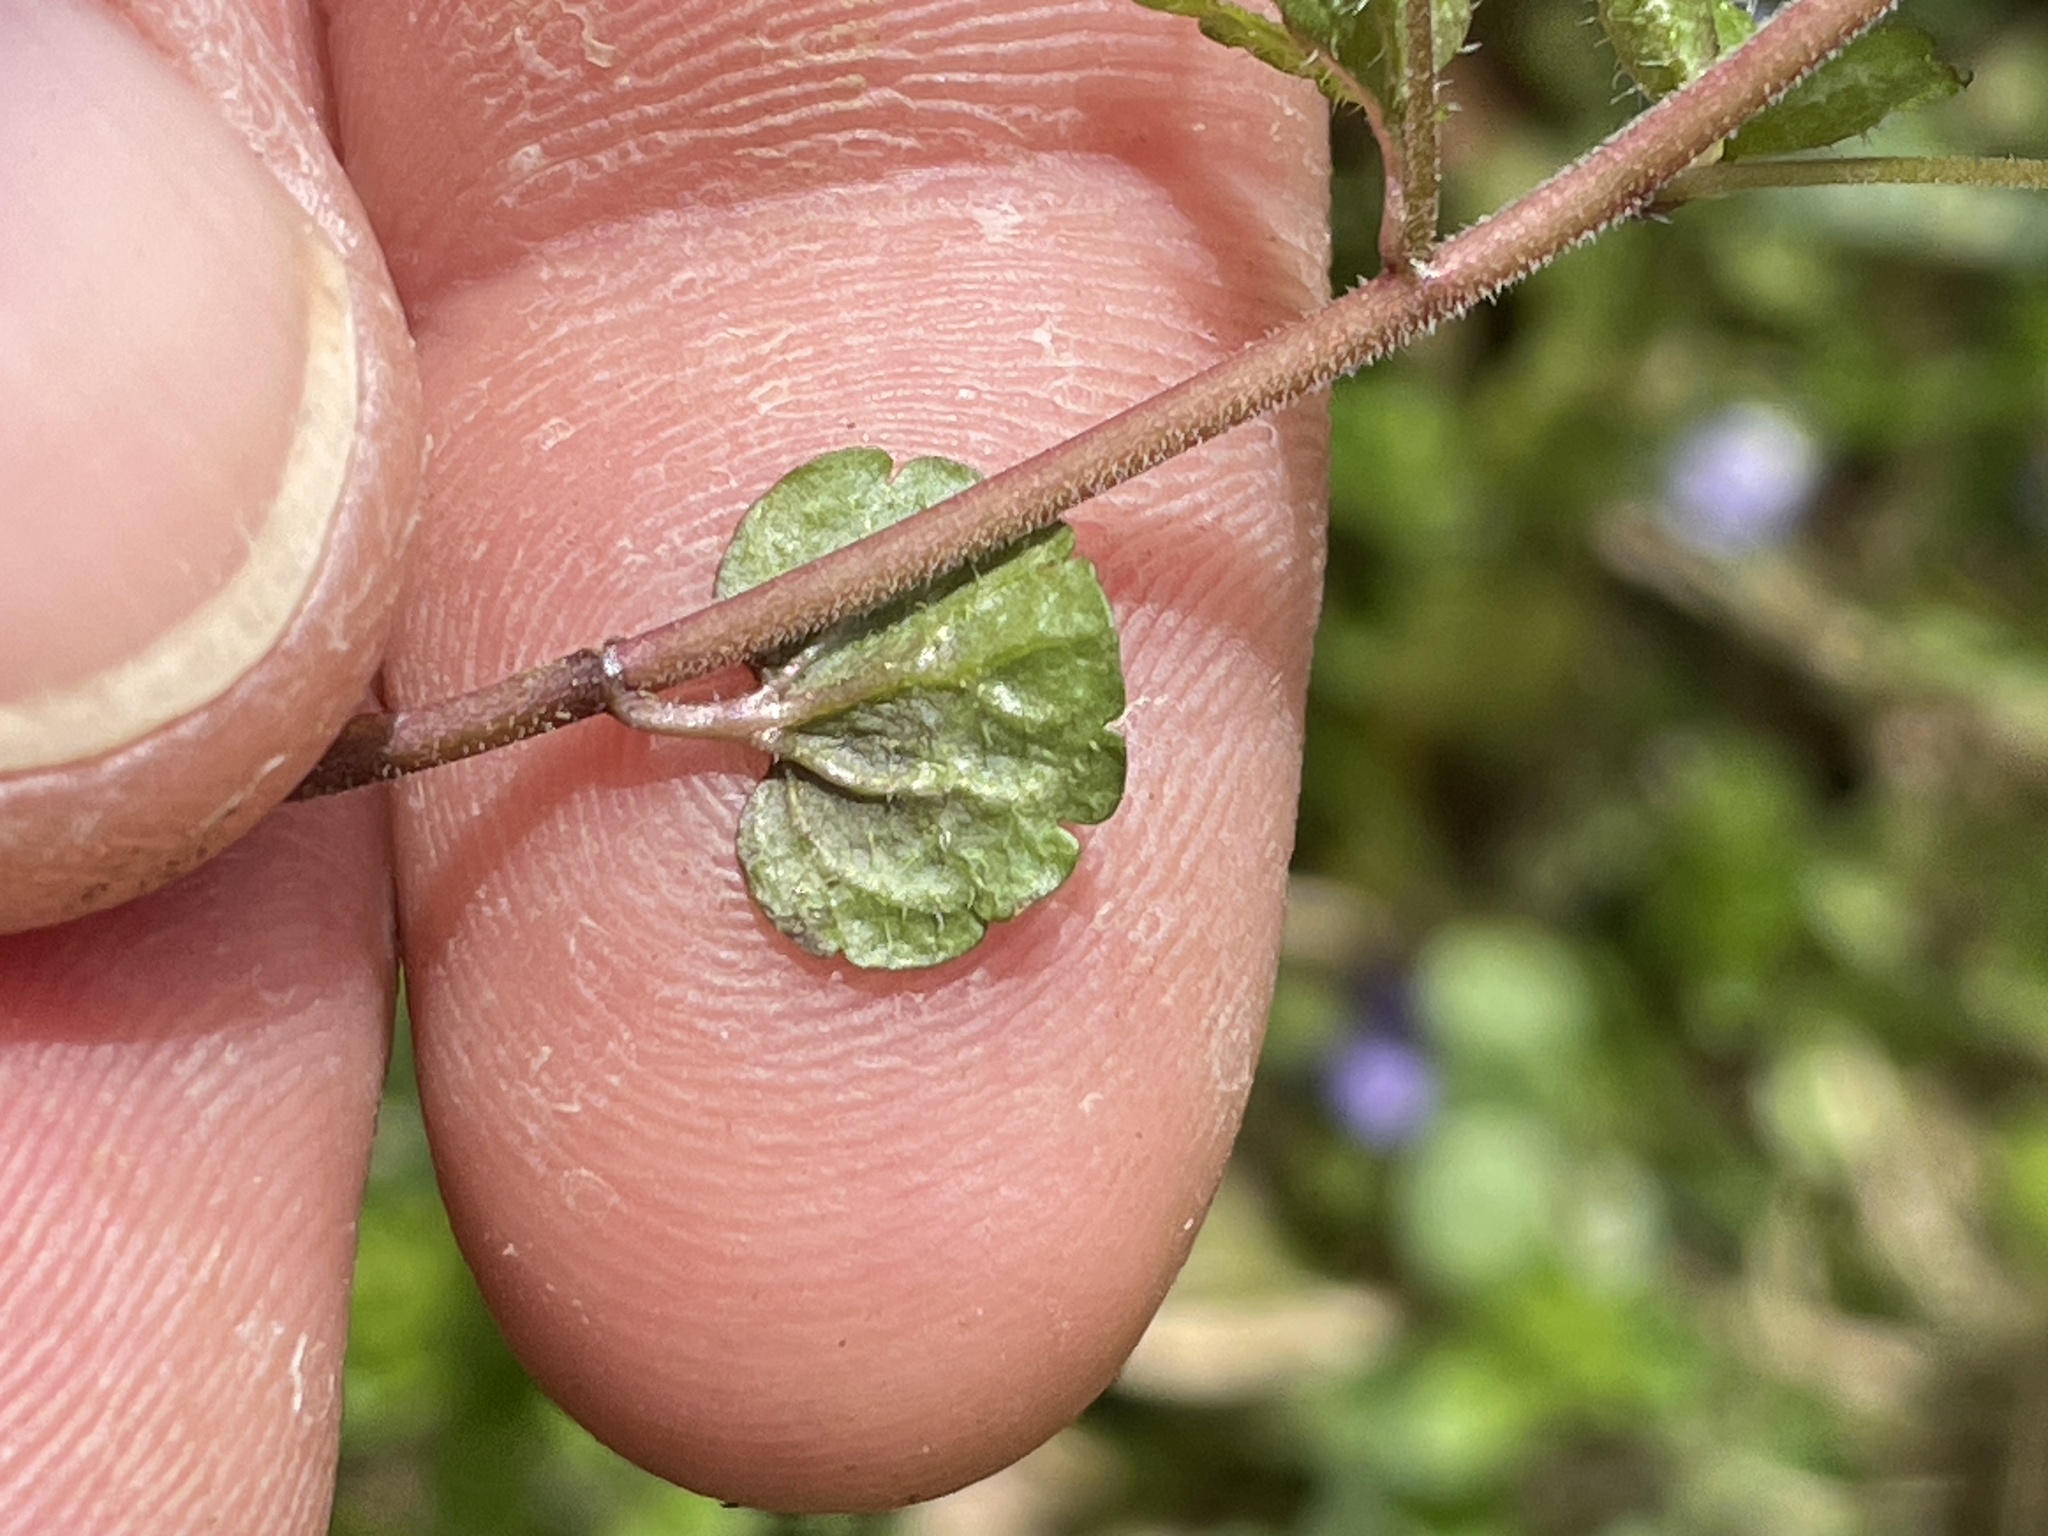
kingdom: Plantae
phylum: Tracheophyta
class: Magnoliopsida
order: Lamiales
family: Plantaginaceae
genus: Veronica
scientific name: Veronica filiformis
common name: Slender speedwell
